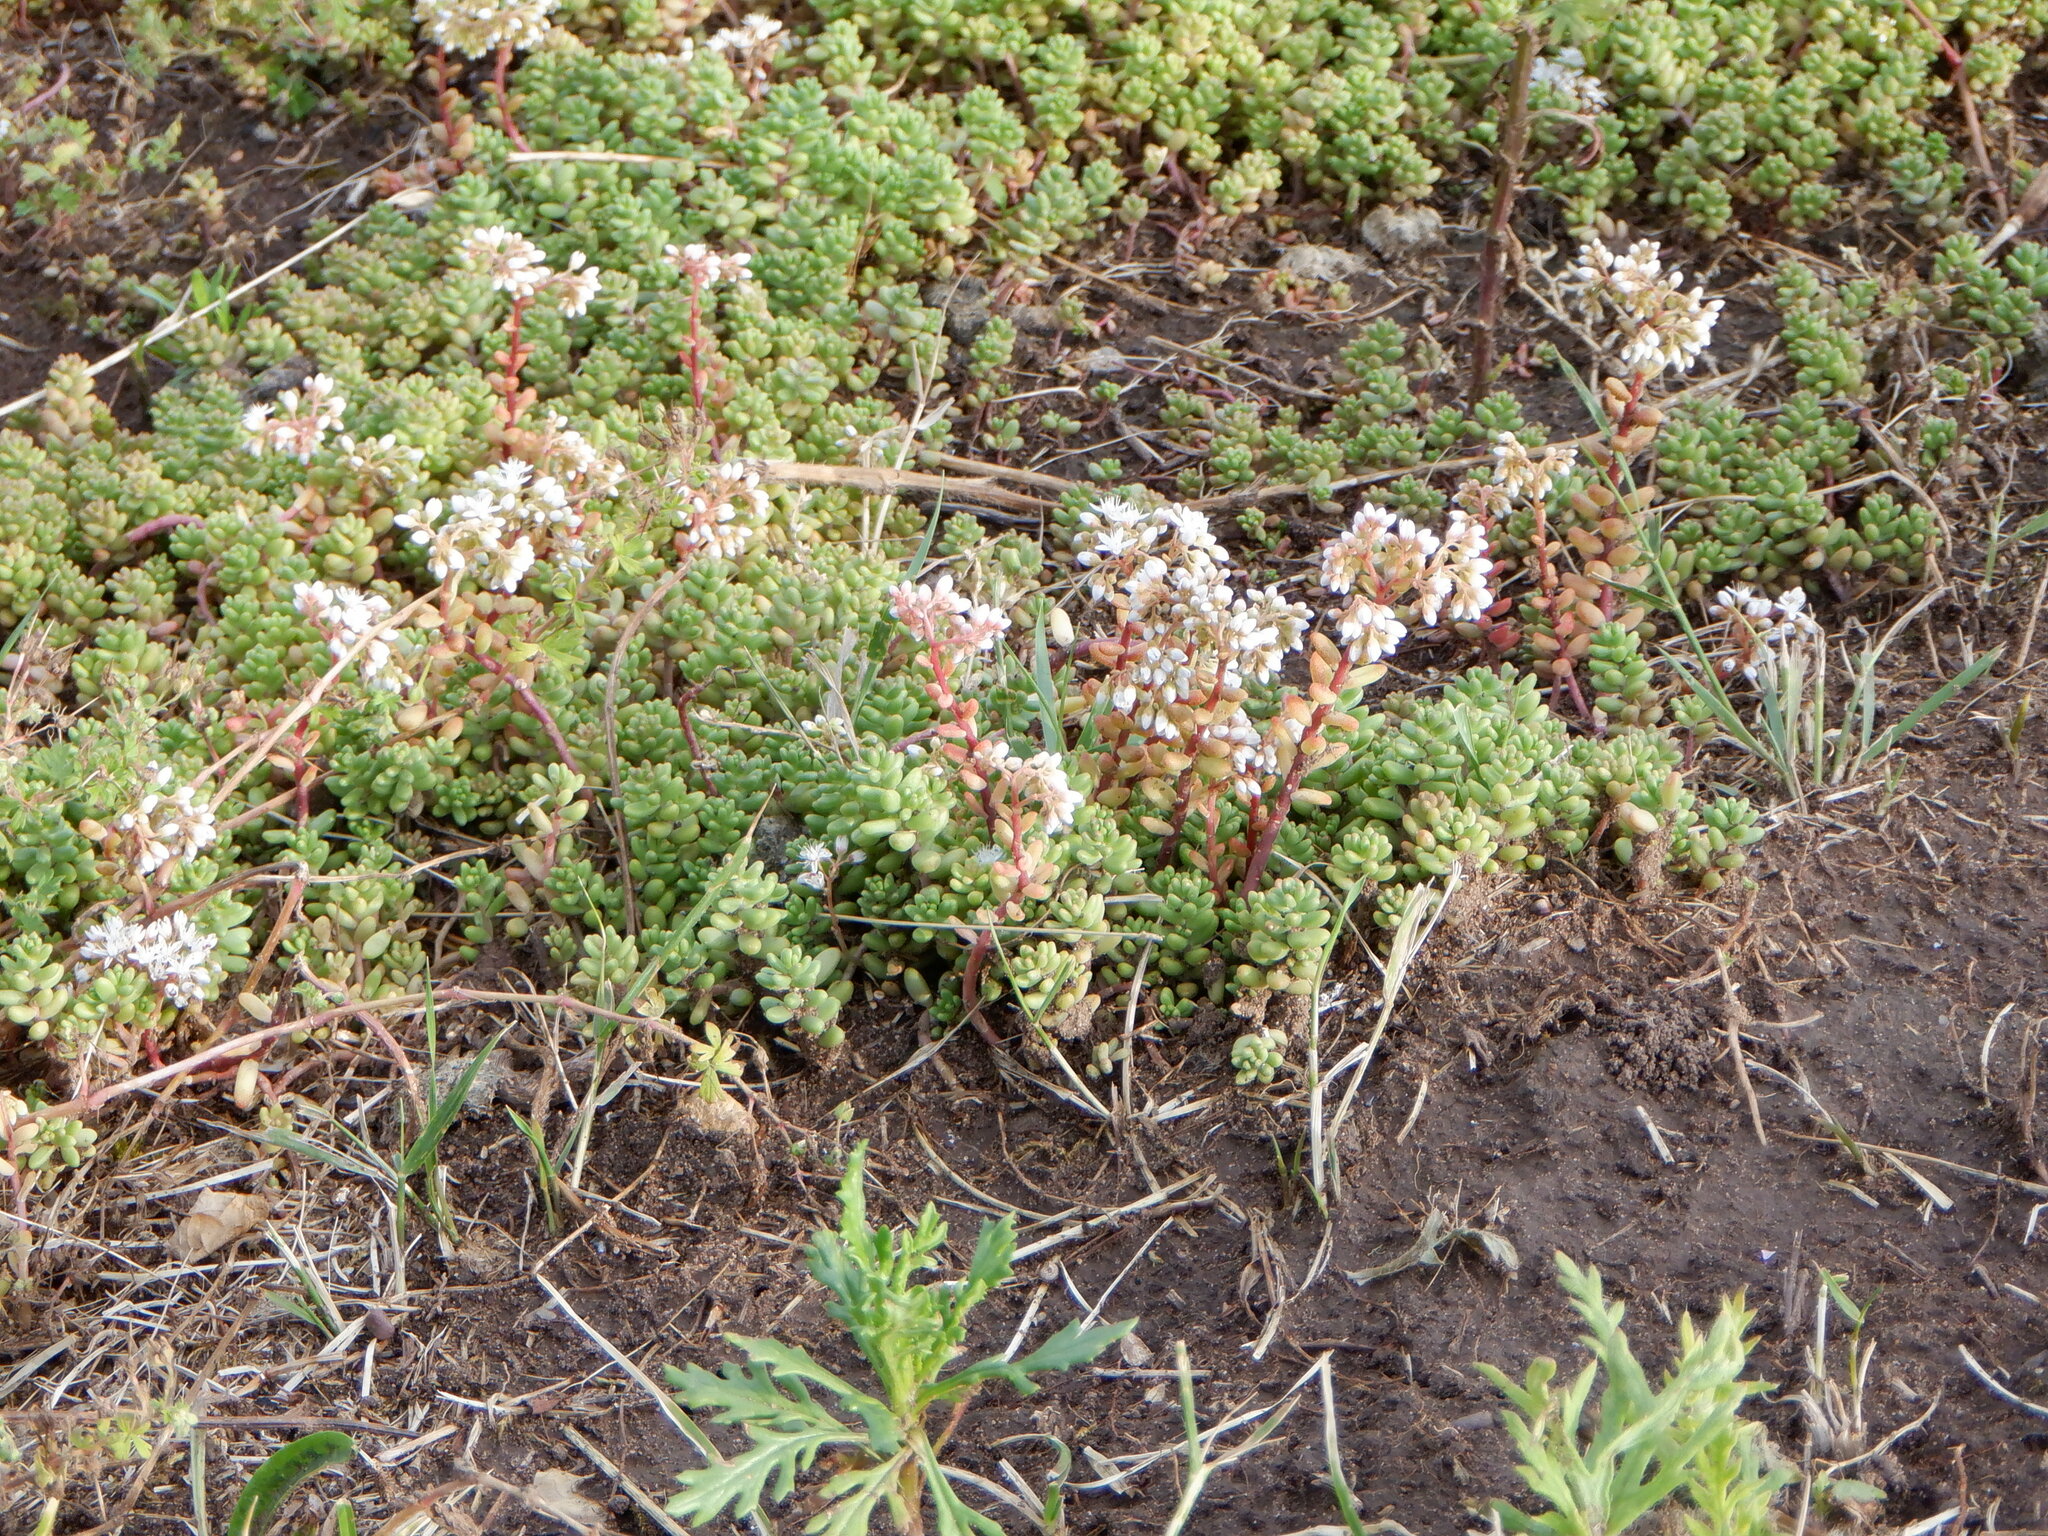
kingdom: Plantae
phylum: Tracheophyta
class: Magnoliopsida
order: Saxifragales
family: Crassulaceae
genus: Sedum
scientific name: Sedum album
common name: White stonecrop
